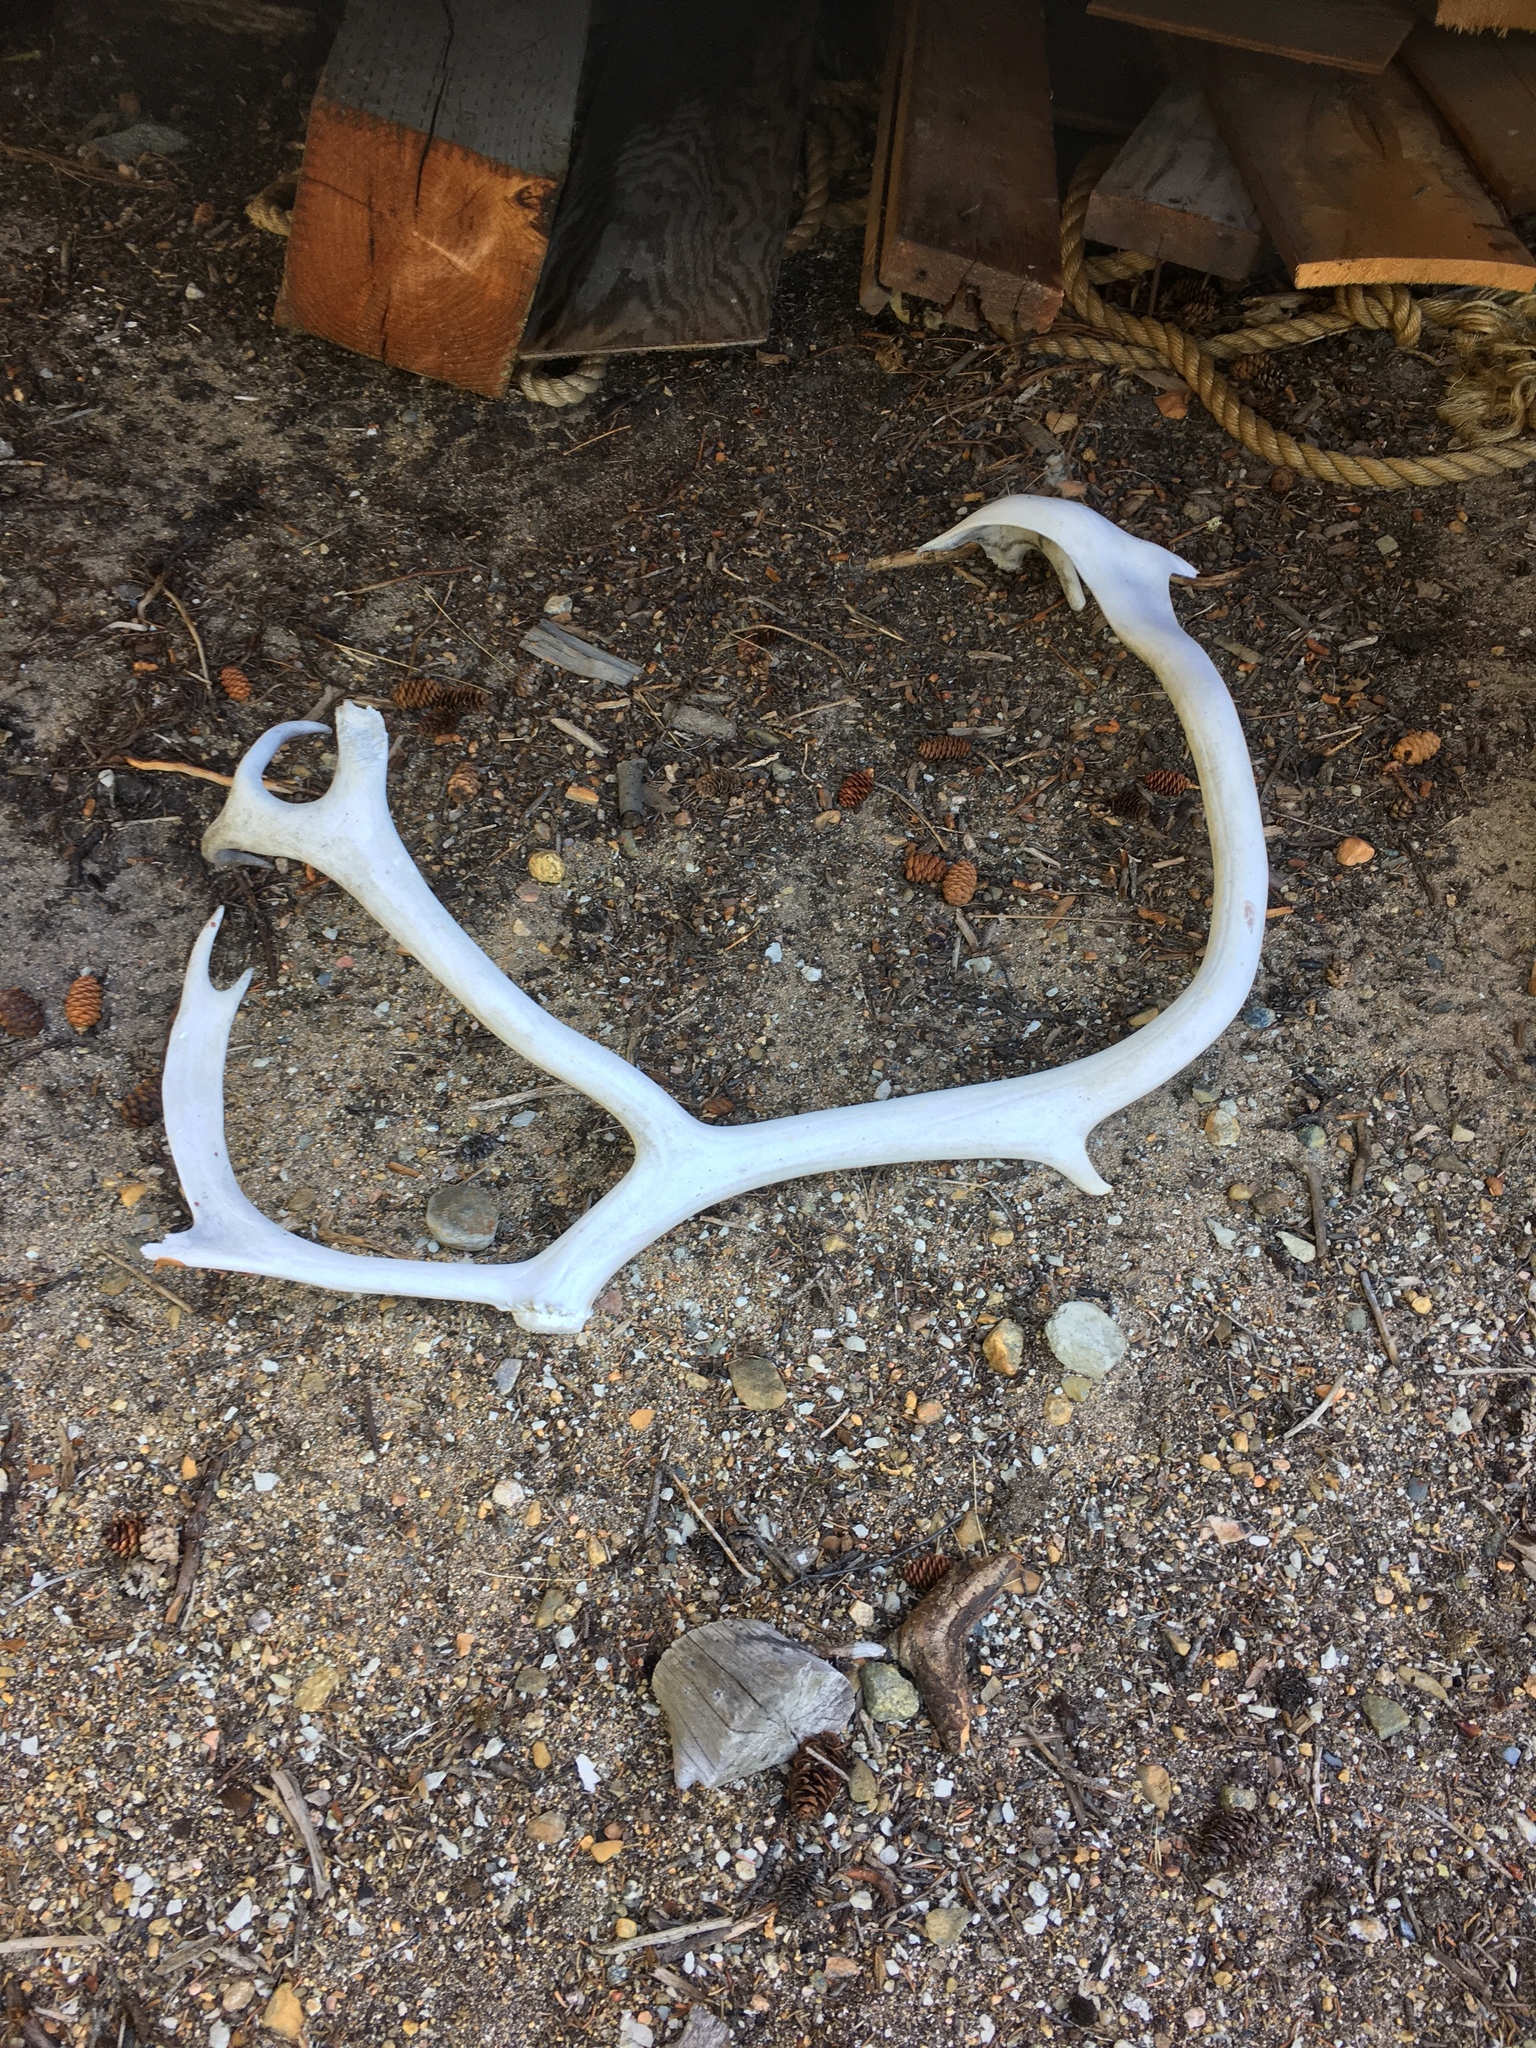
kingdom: Animalia
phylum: Chordata
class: Mammalia
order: Artiodactyla
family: Cervidae
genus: Rangifer
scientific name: Rangifer tarandus
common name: Reindeer
